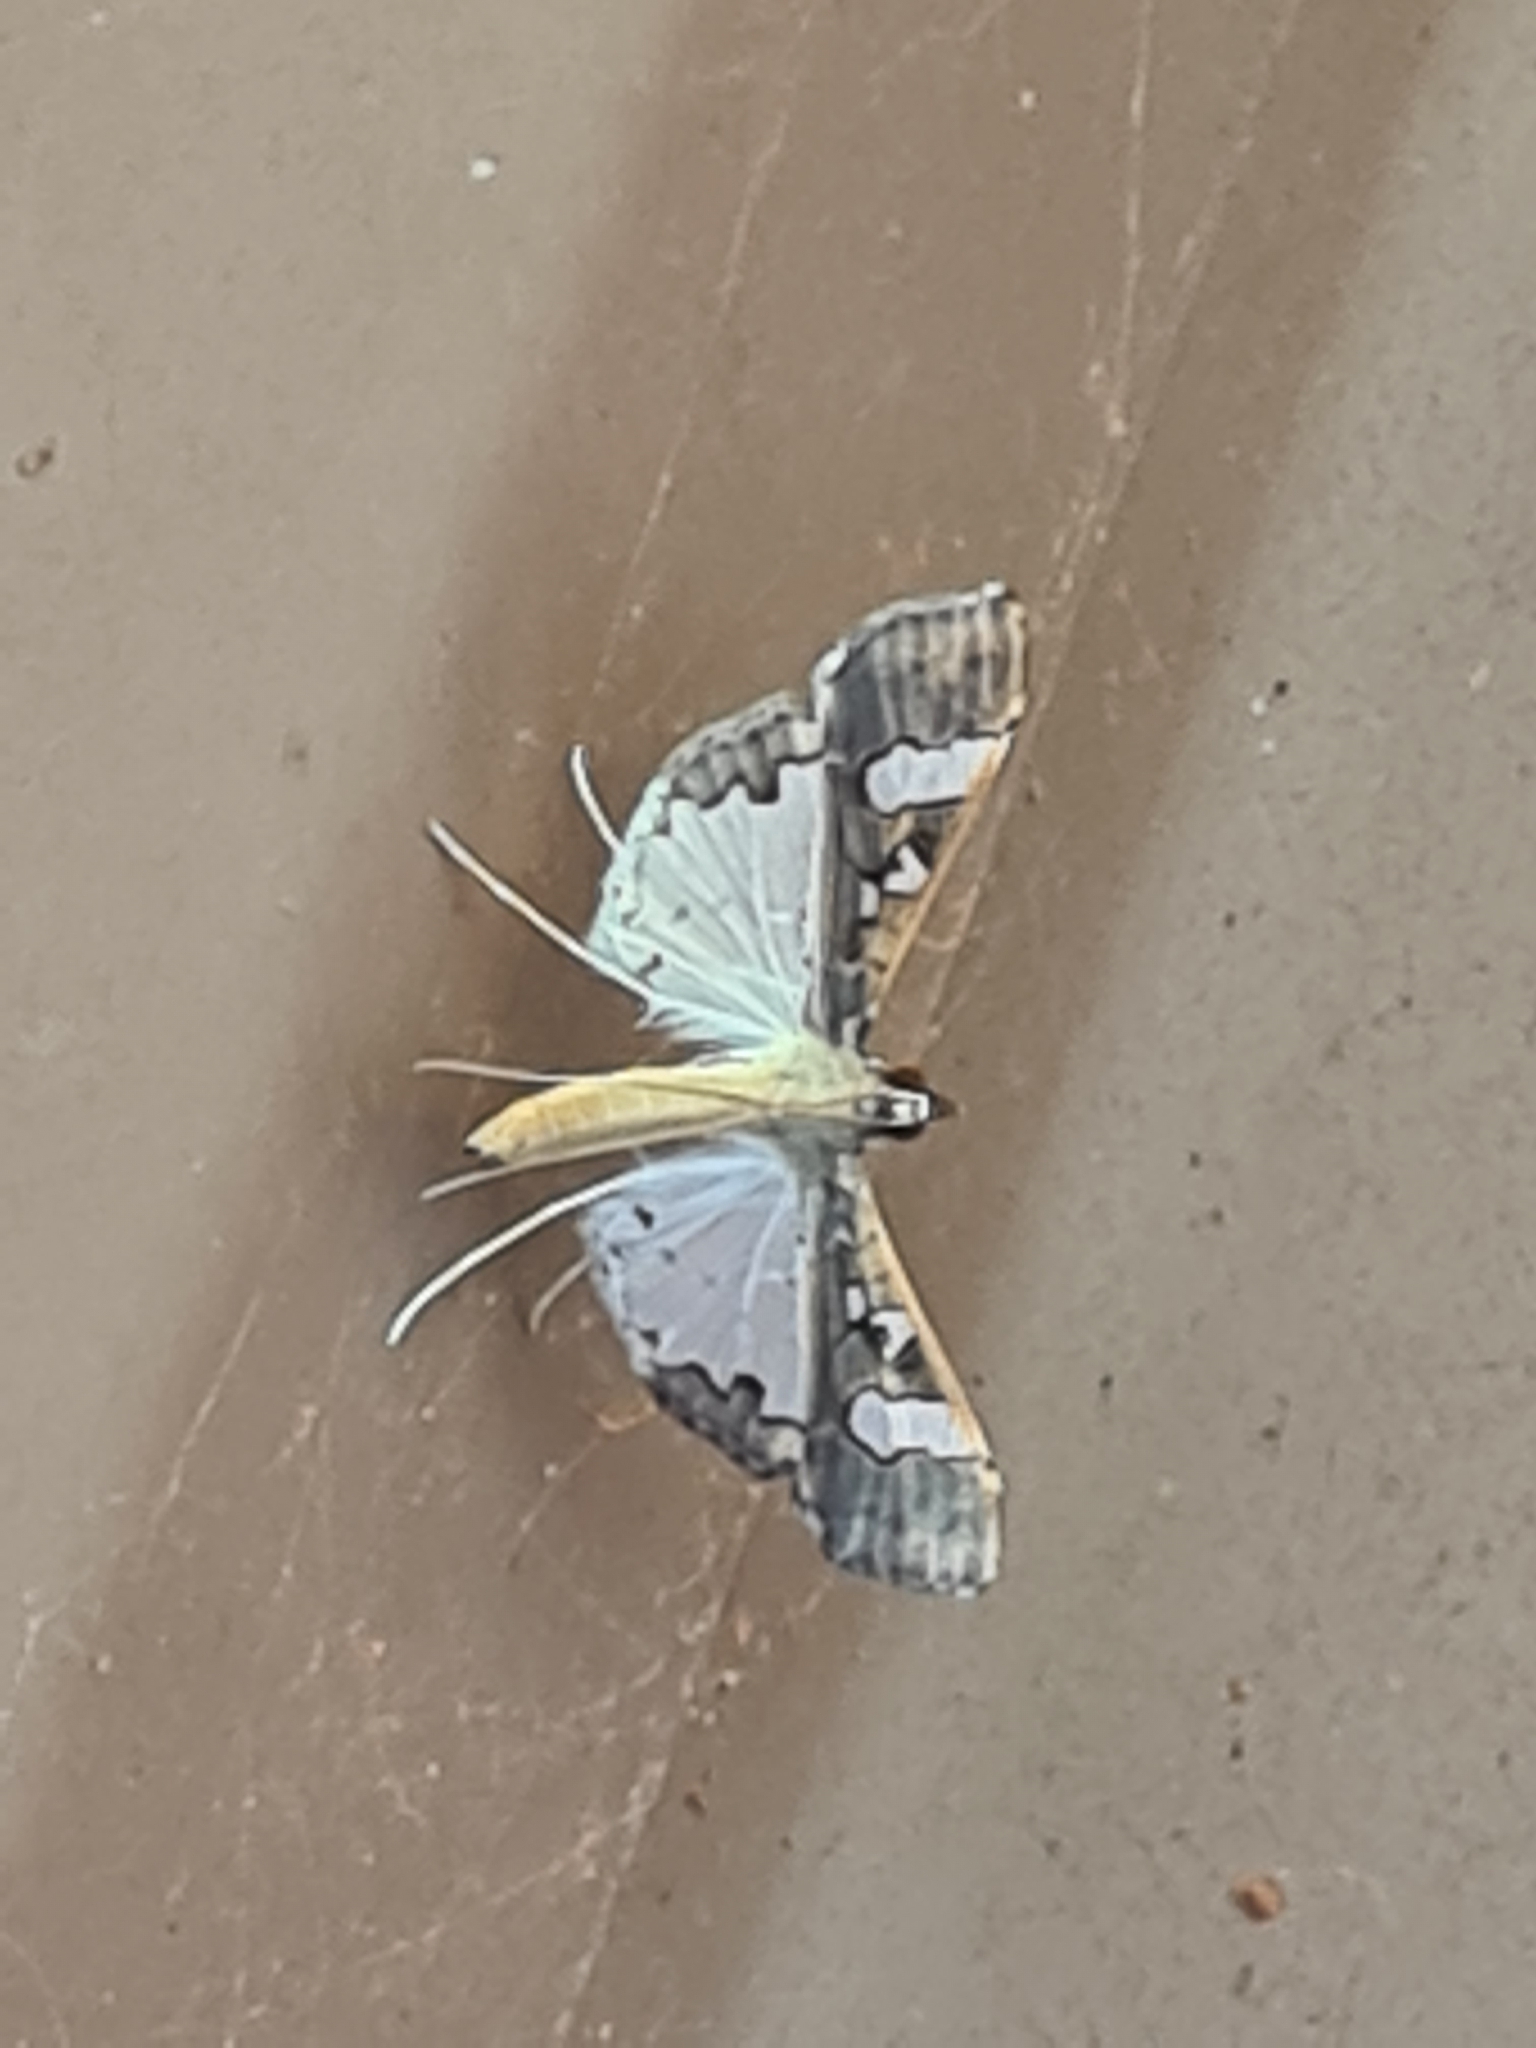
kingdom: Animalia
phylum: Arthropoda
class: Insecta
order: Lepidoptera
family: Crambidae
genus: Maruca
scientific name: Maruca vitrata
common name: Maruca pod borer
